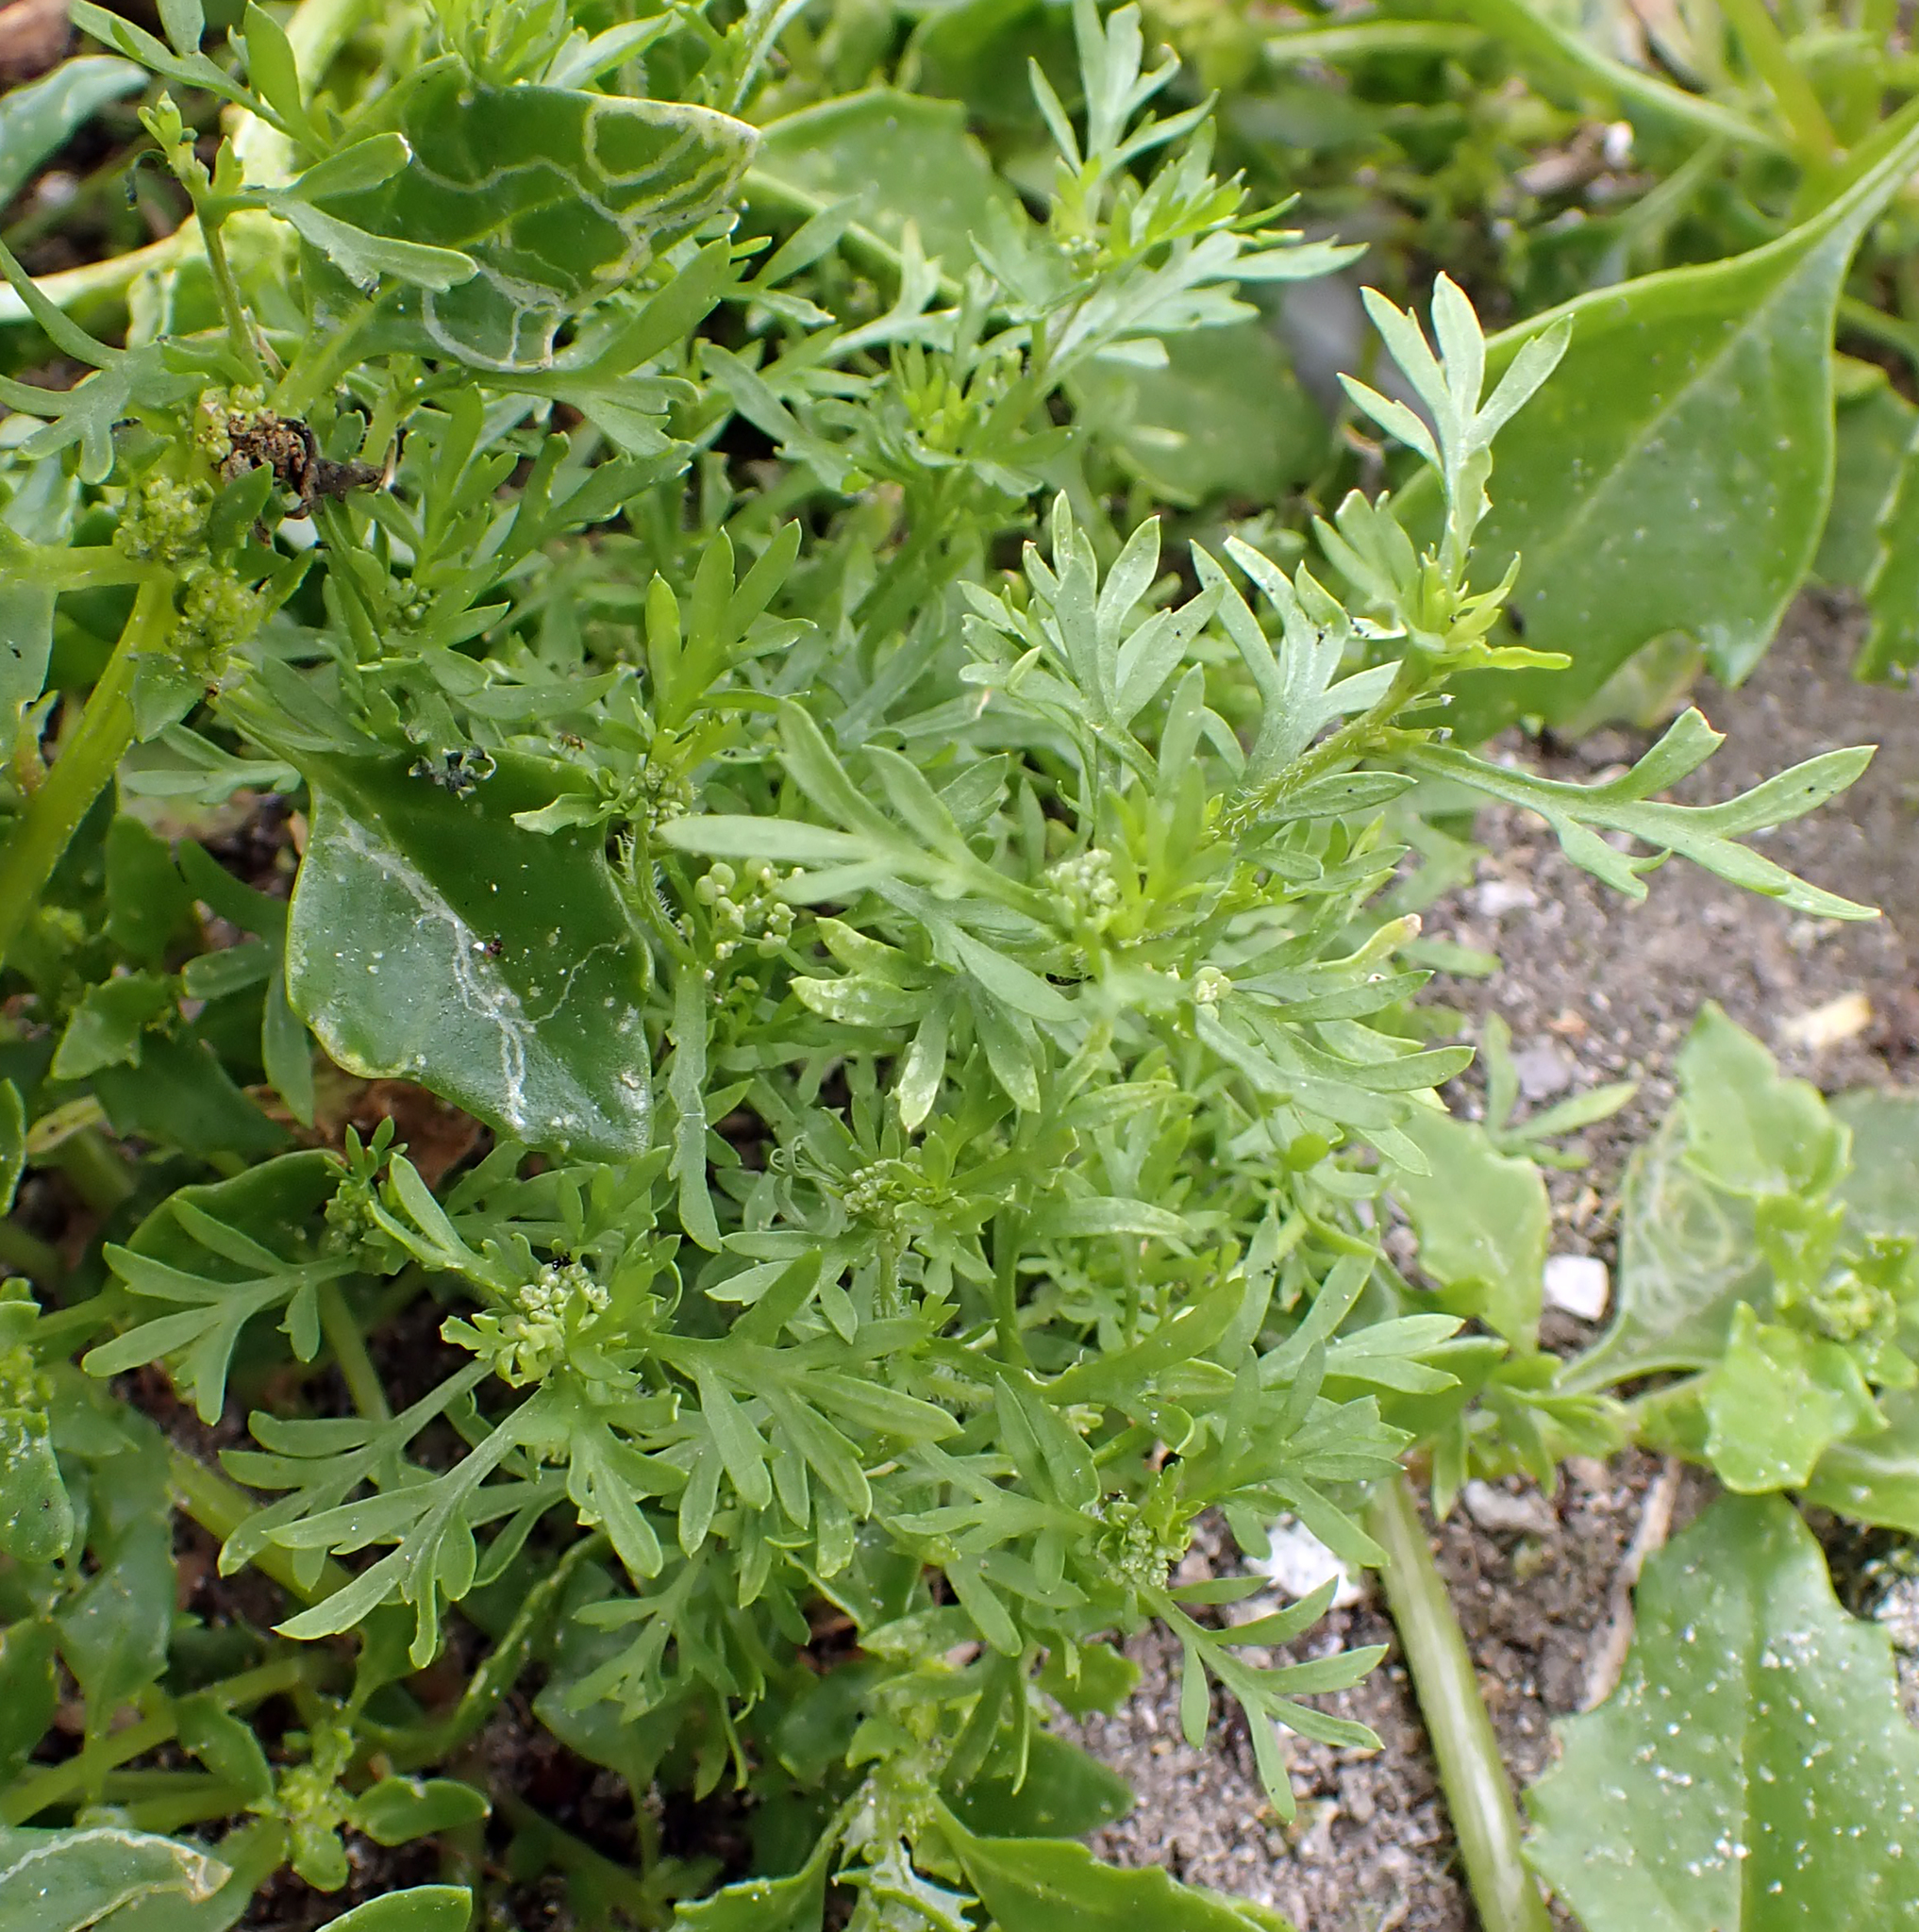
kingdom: Plantae
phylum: Tracheophyta
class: Magnoliopsida
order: Brassicales
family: Brassicaceae
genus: Lepidium
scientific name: Lepidium coronopus
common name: Greater swinecress
